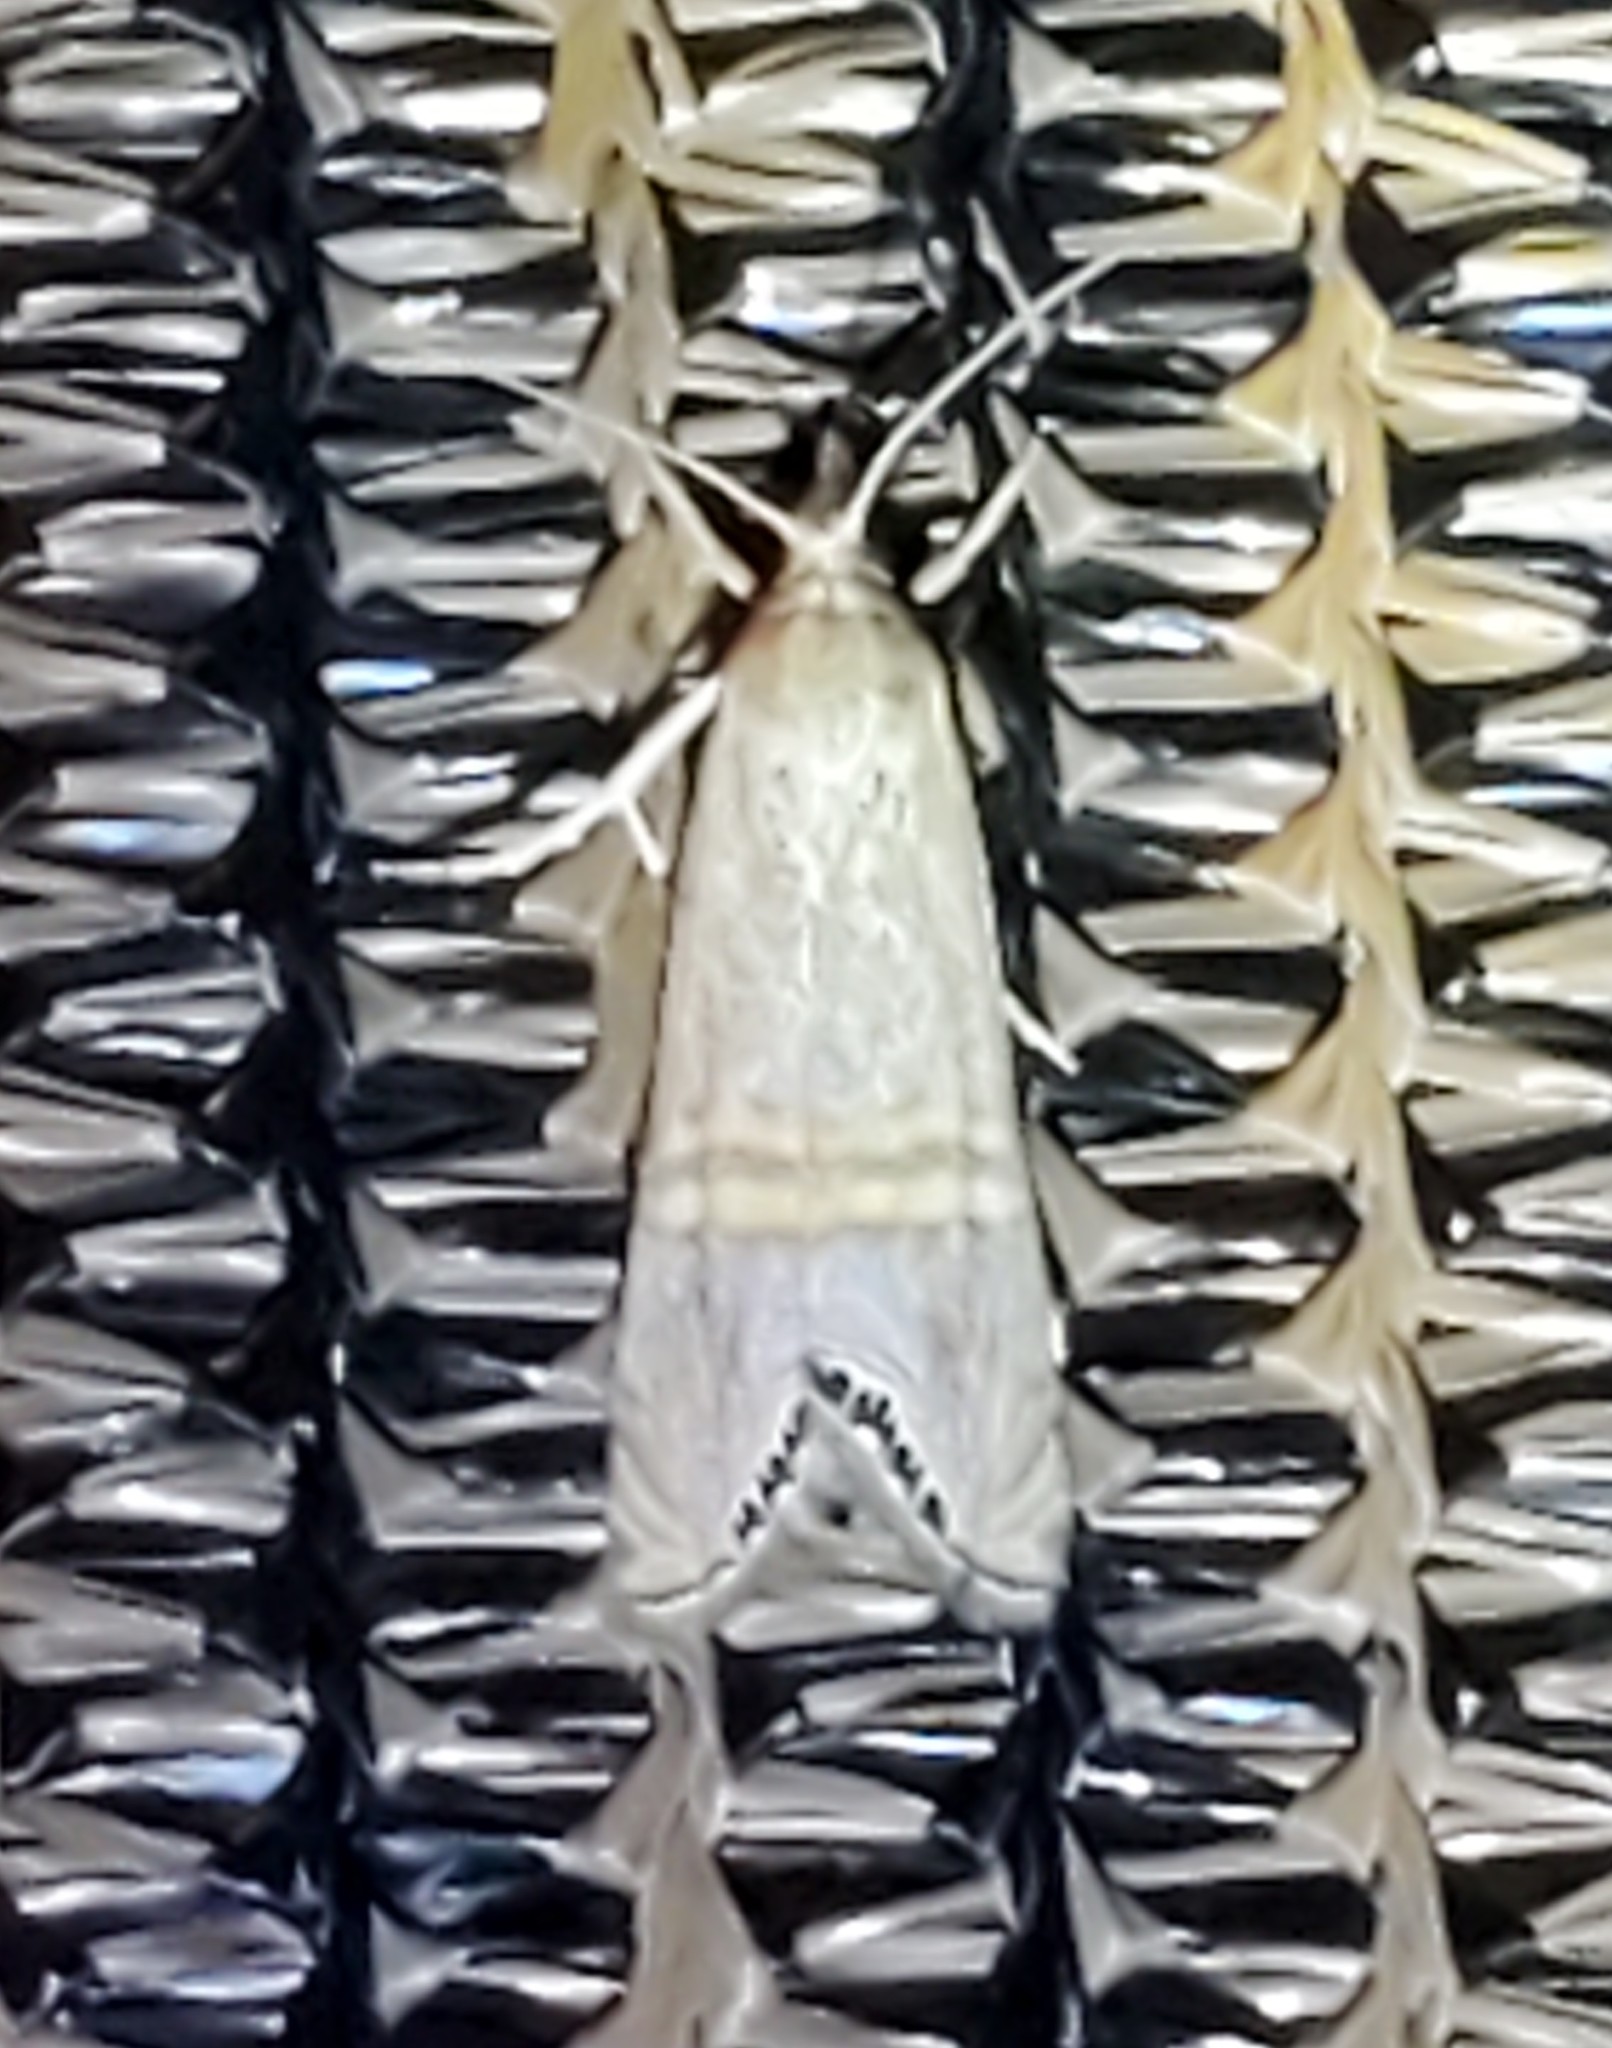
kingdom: Animalia
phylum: Arthropoda
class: Insecta
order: Lepidoptera
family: Crambidae
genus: Euchromius
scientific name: Euchromius ocellea
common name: Necklace veneer moth
